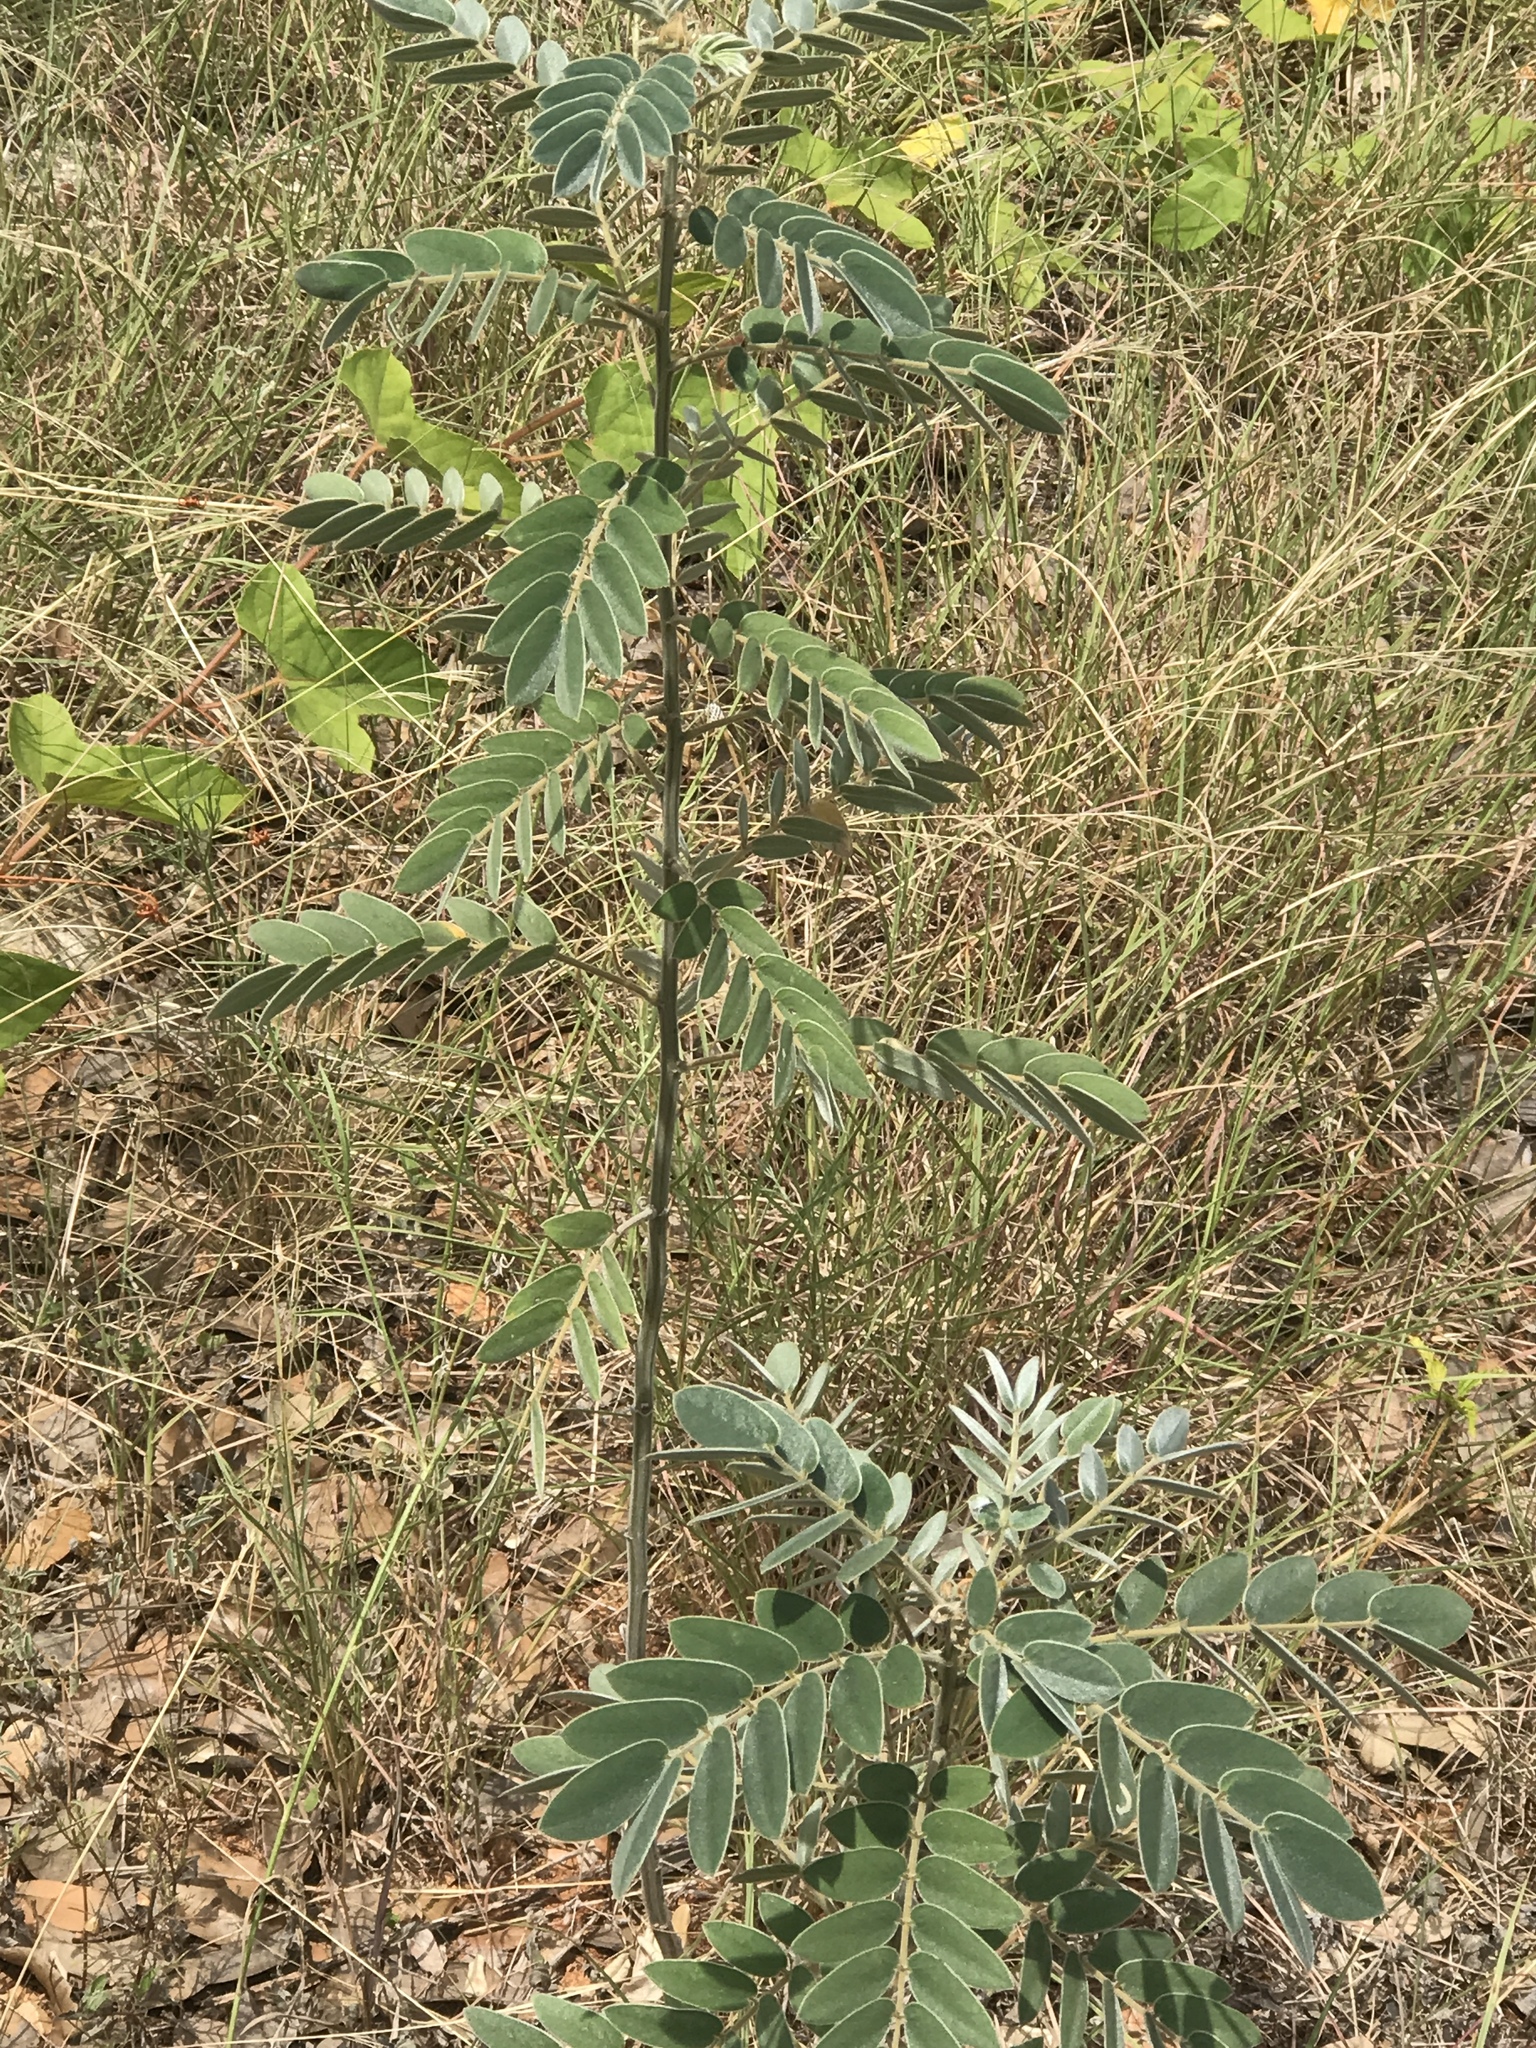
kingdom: Plantae
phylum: Tracheophyta
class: Magnoliopsida
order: Fabales
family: Fabaceae
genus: Senna
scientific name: Senna lindheimeriana
